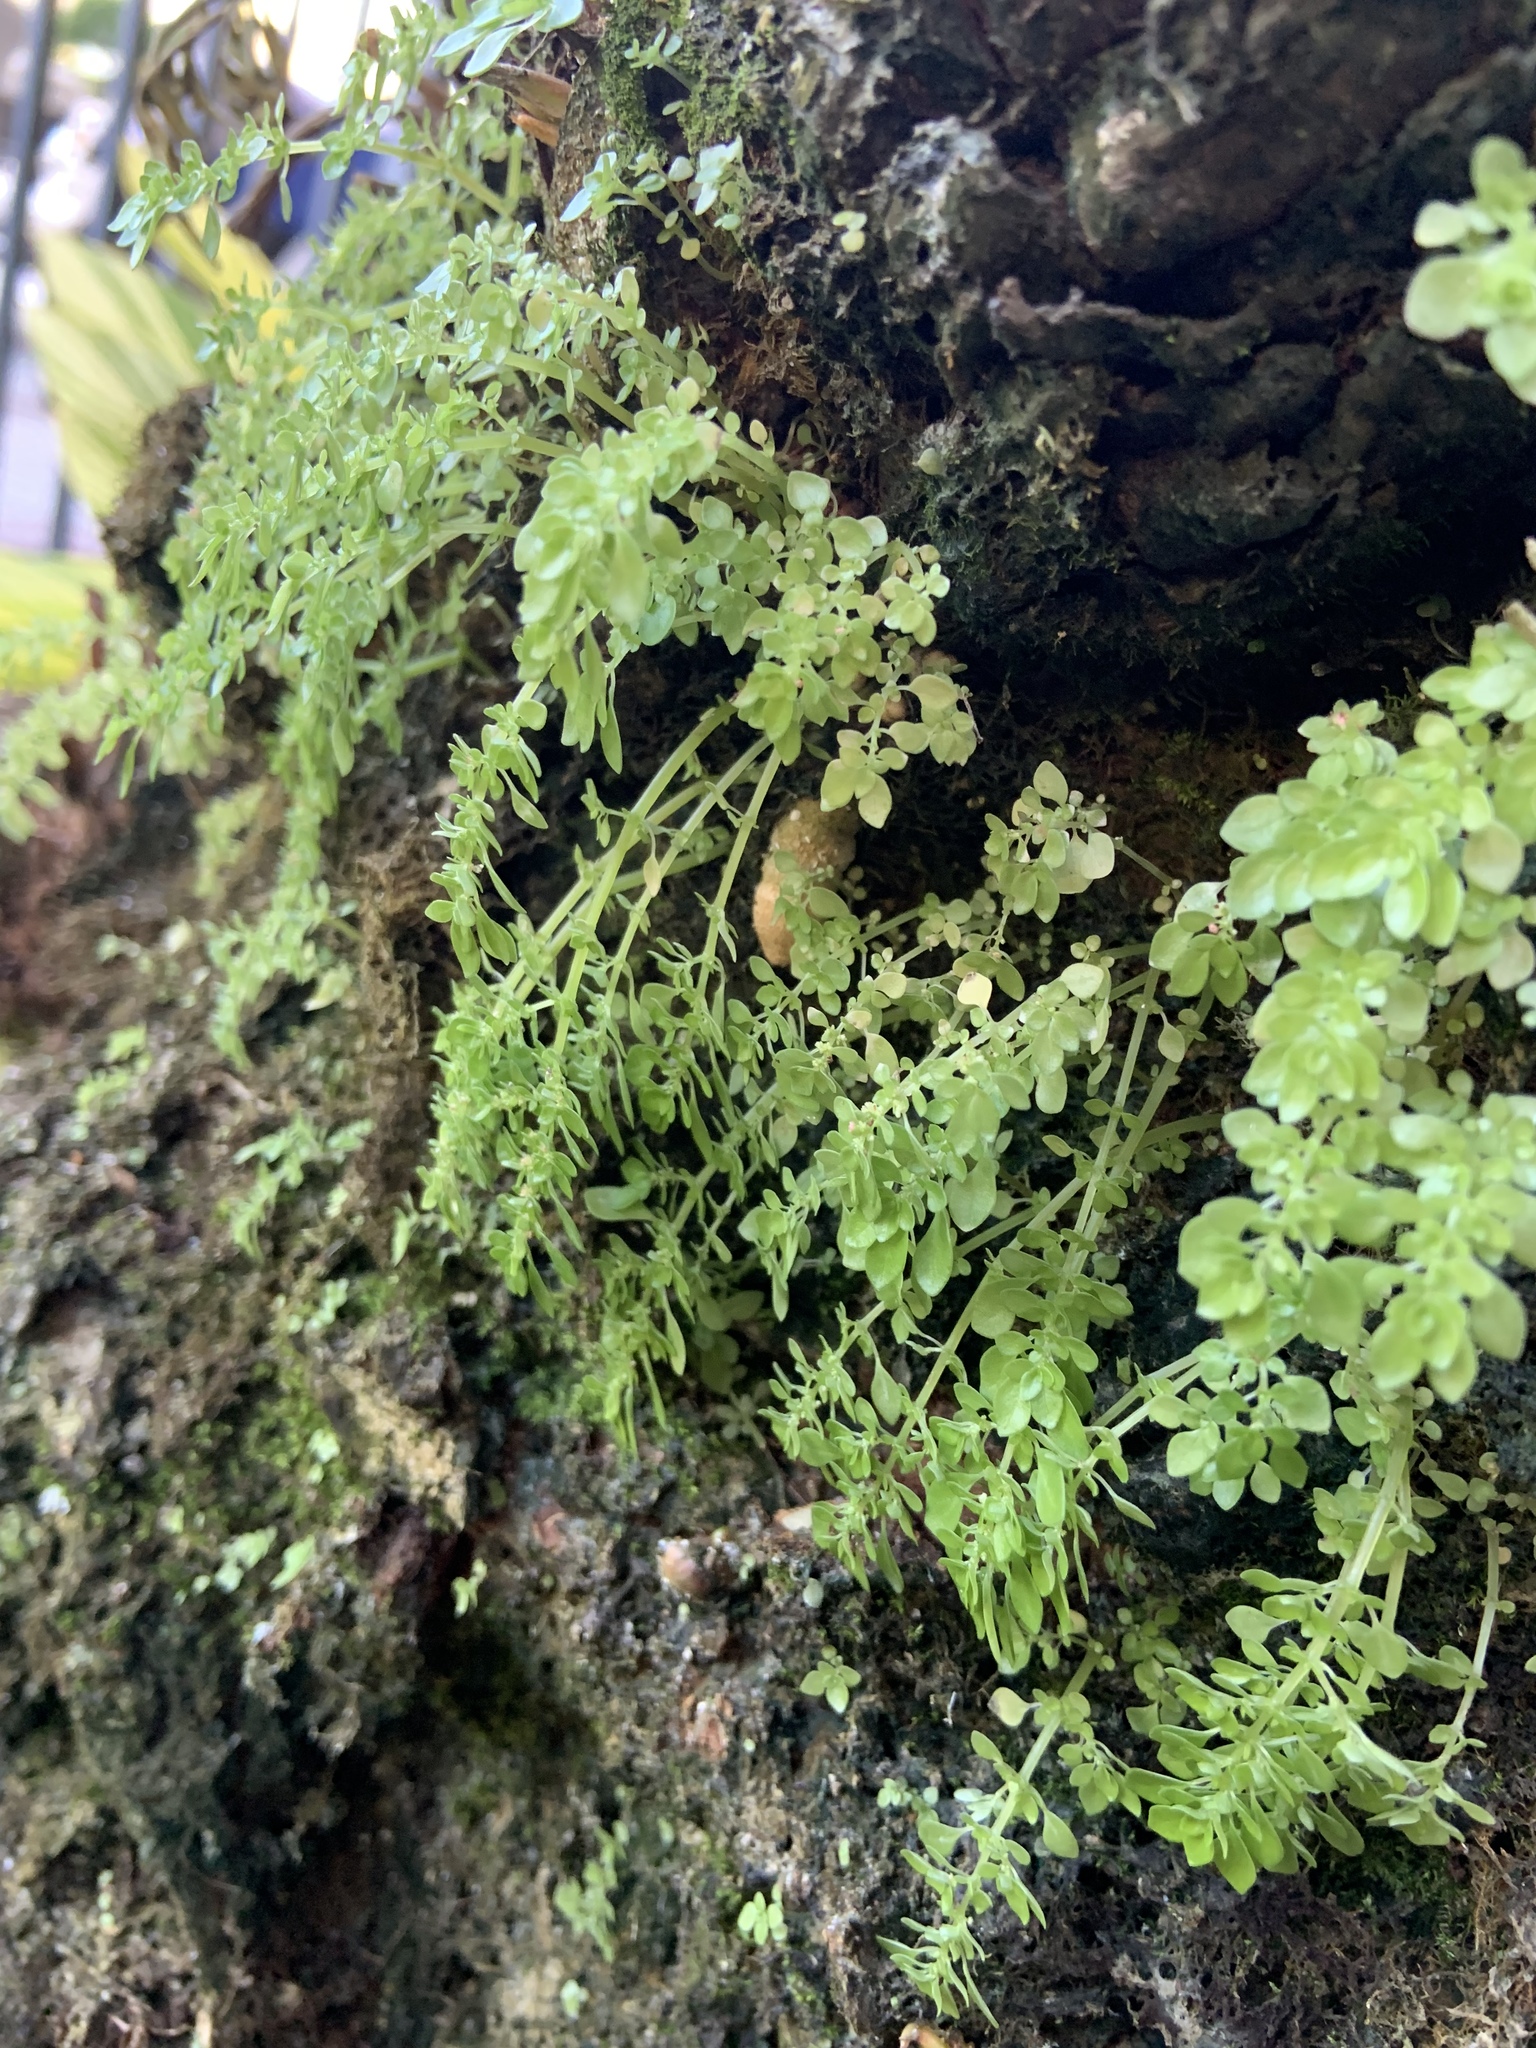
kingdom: Plantae
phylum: Tracheophyta
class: Magnoliopsida
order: Rosales
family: Urticaceae
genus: Pilea
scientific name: Pilea microphylla
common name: Artillery-plant
